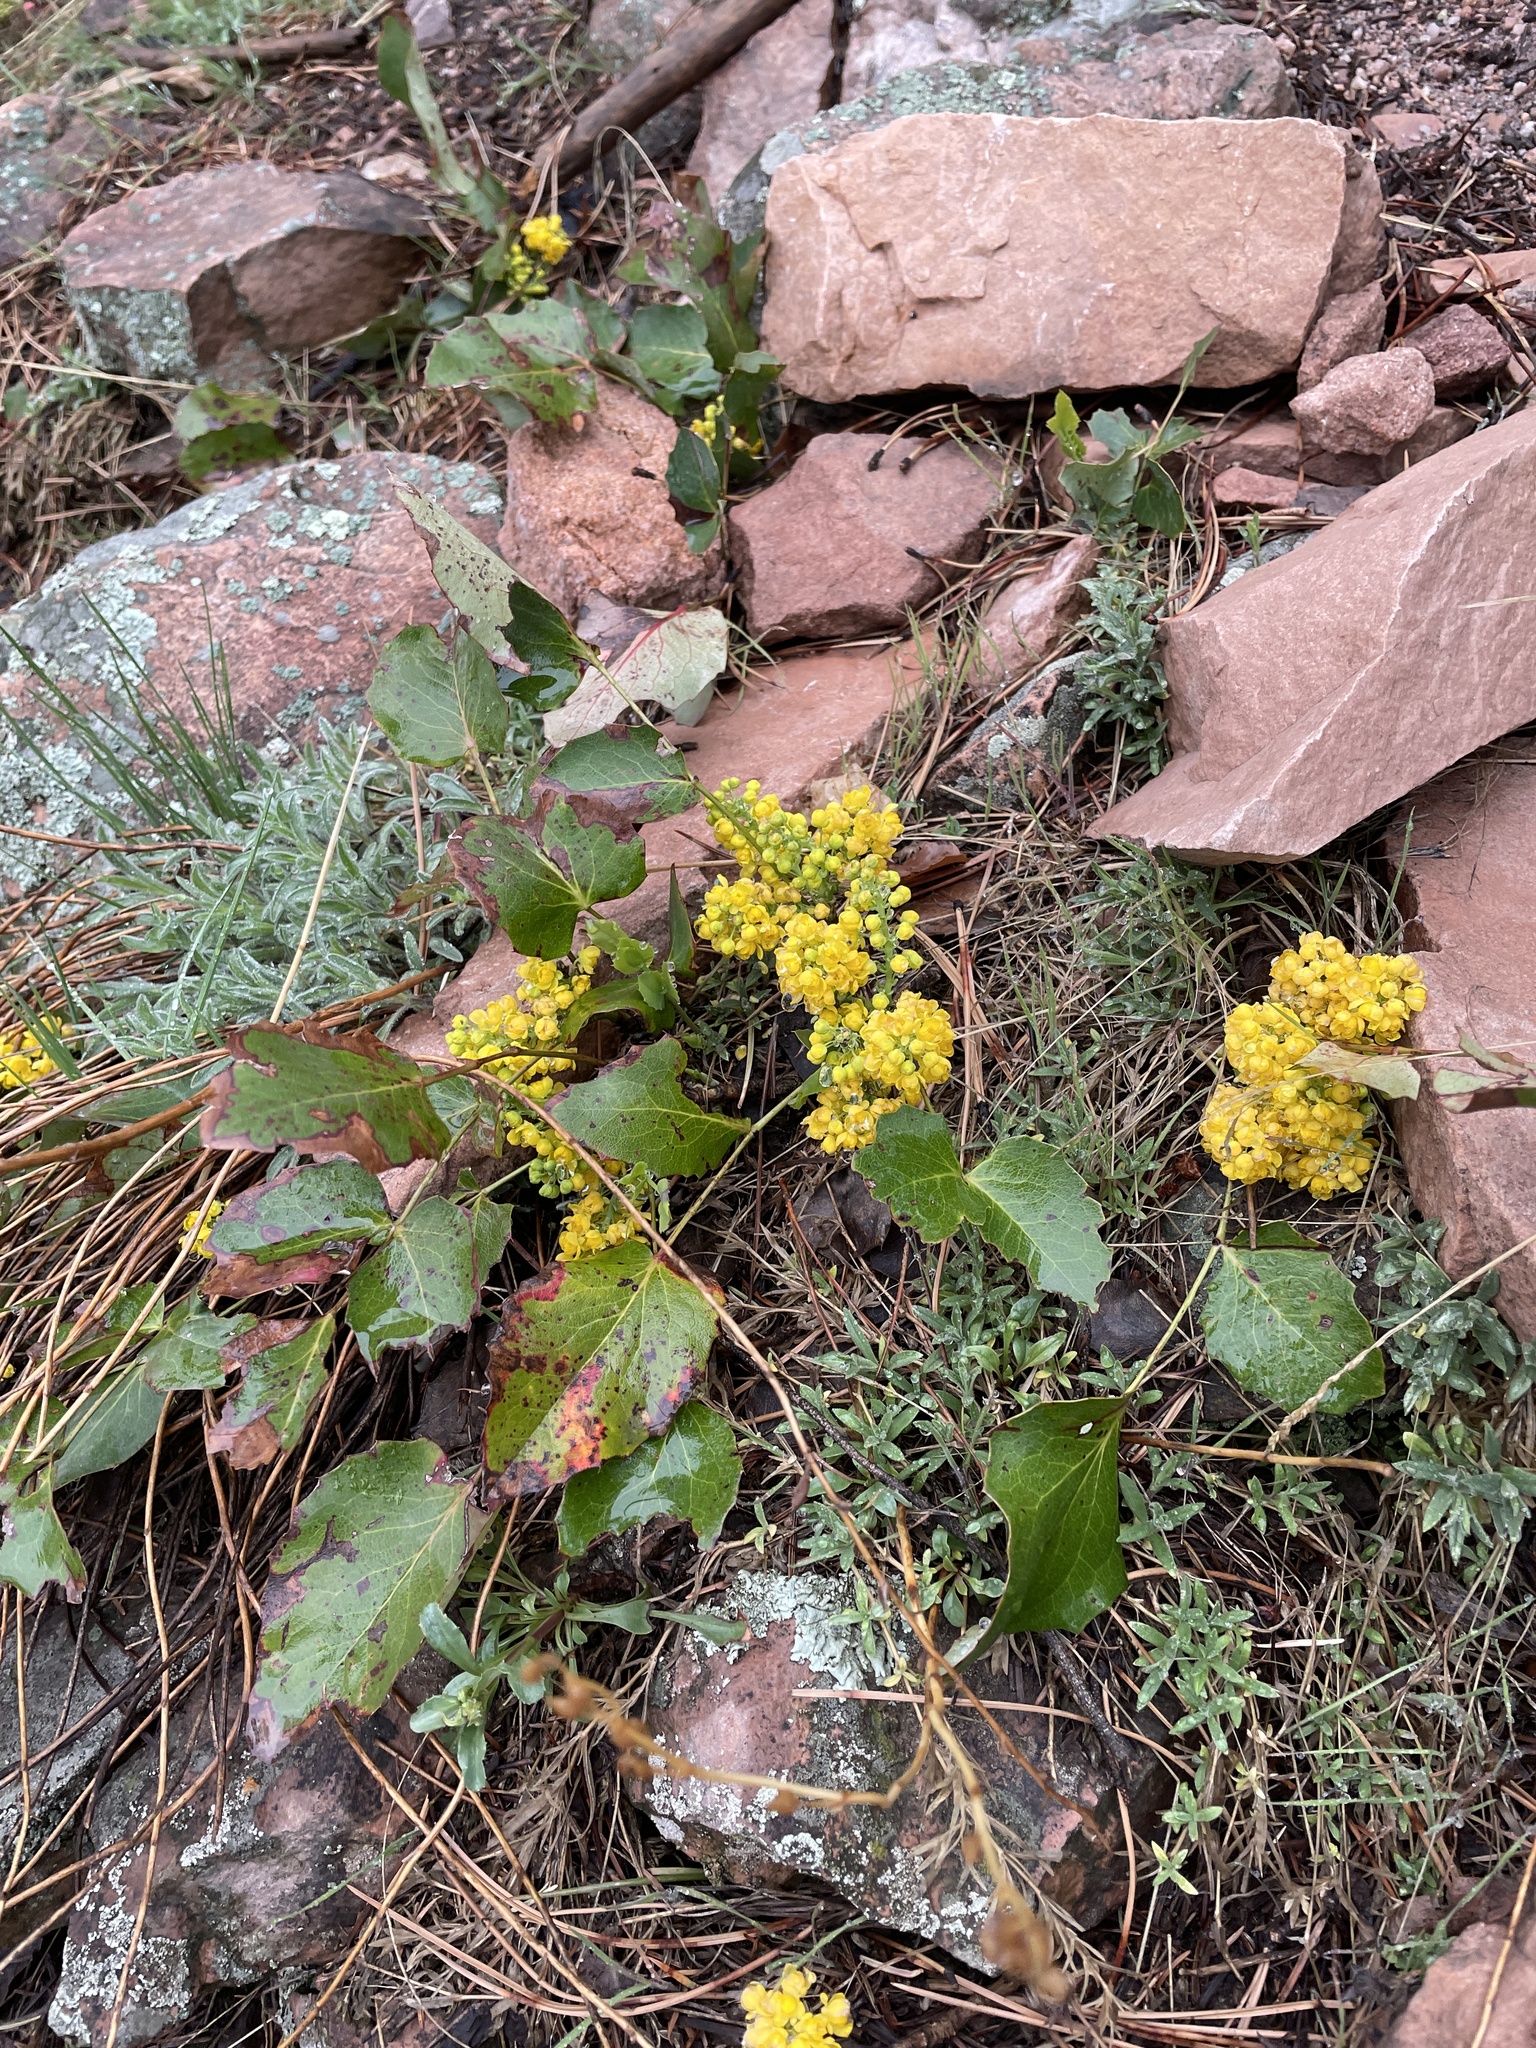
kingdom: Plantae
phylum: Tracheophyta
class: Magnoliopsida
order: Ranunculales
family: Berberidaceae
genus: Mahonia
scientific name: Mahonia repens
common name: Creeping oregon-grape
